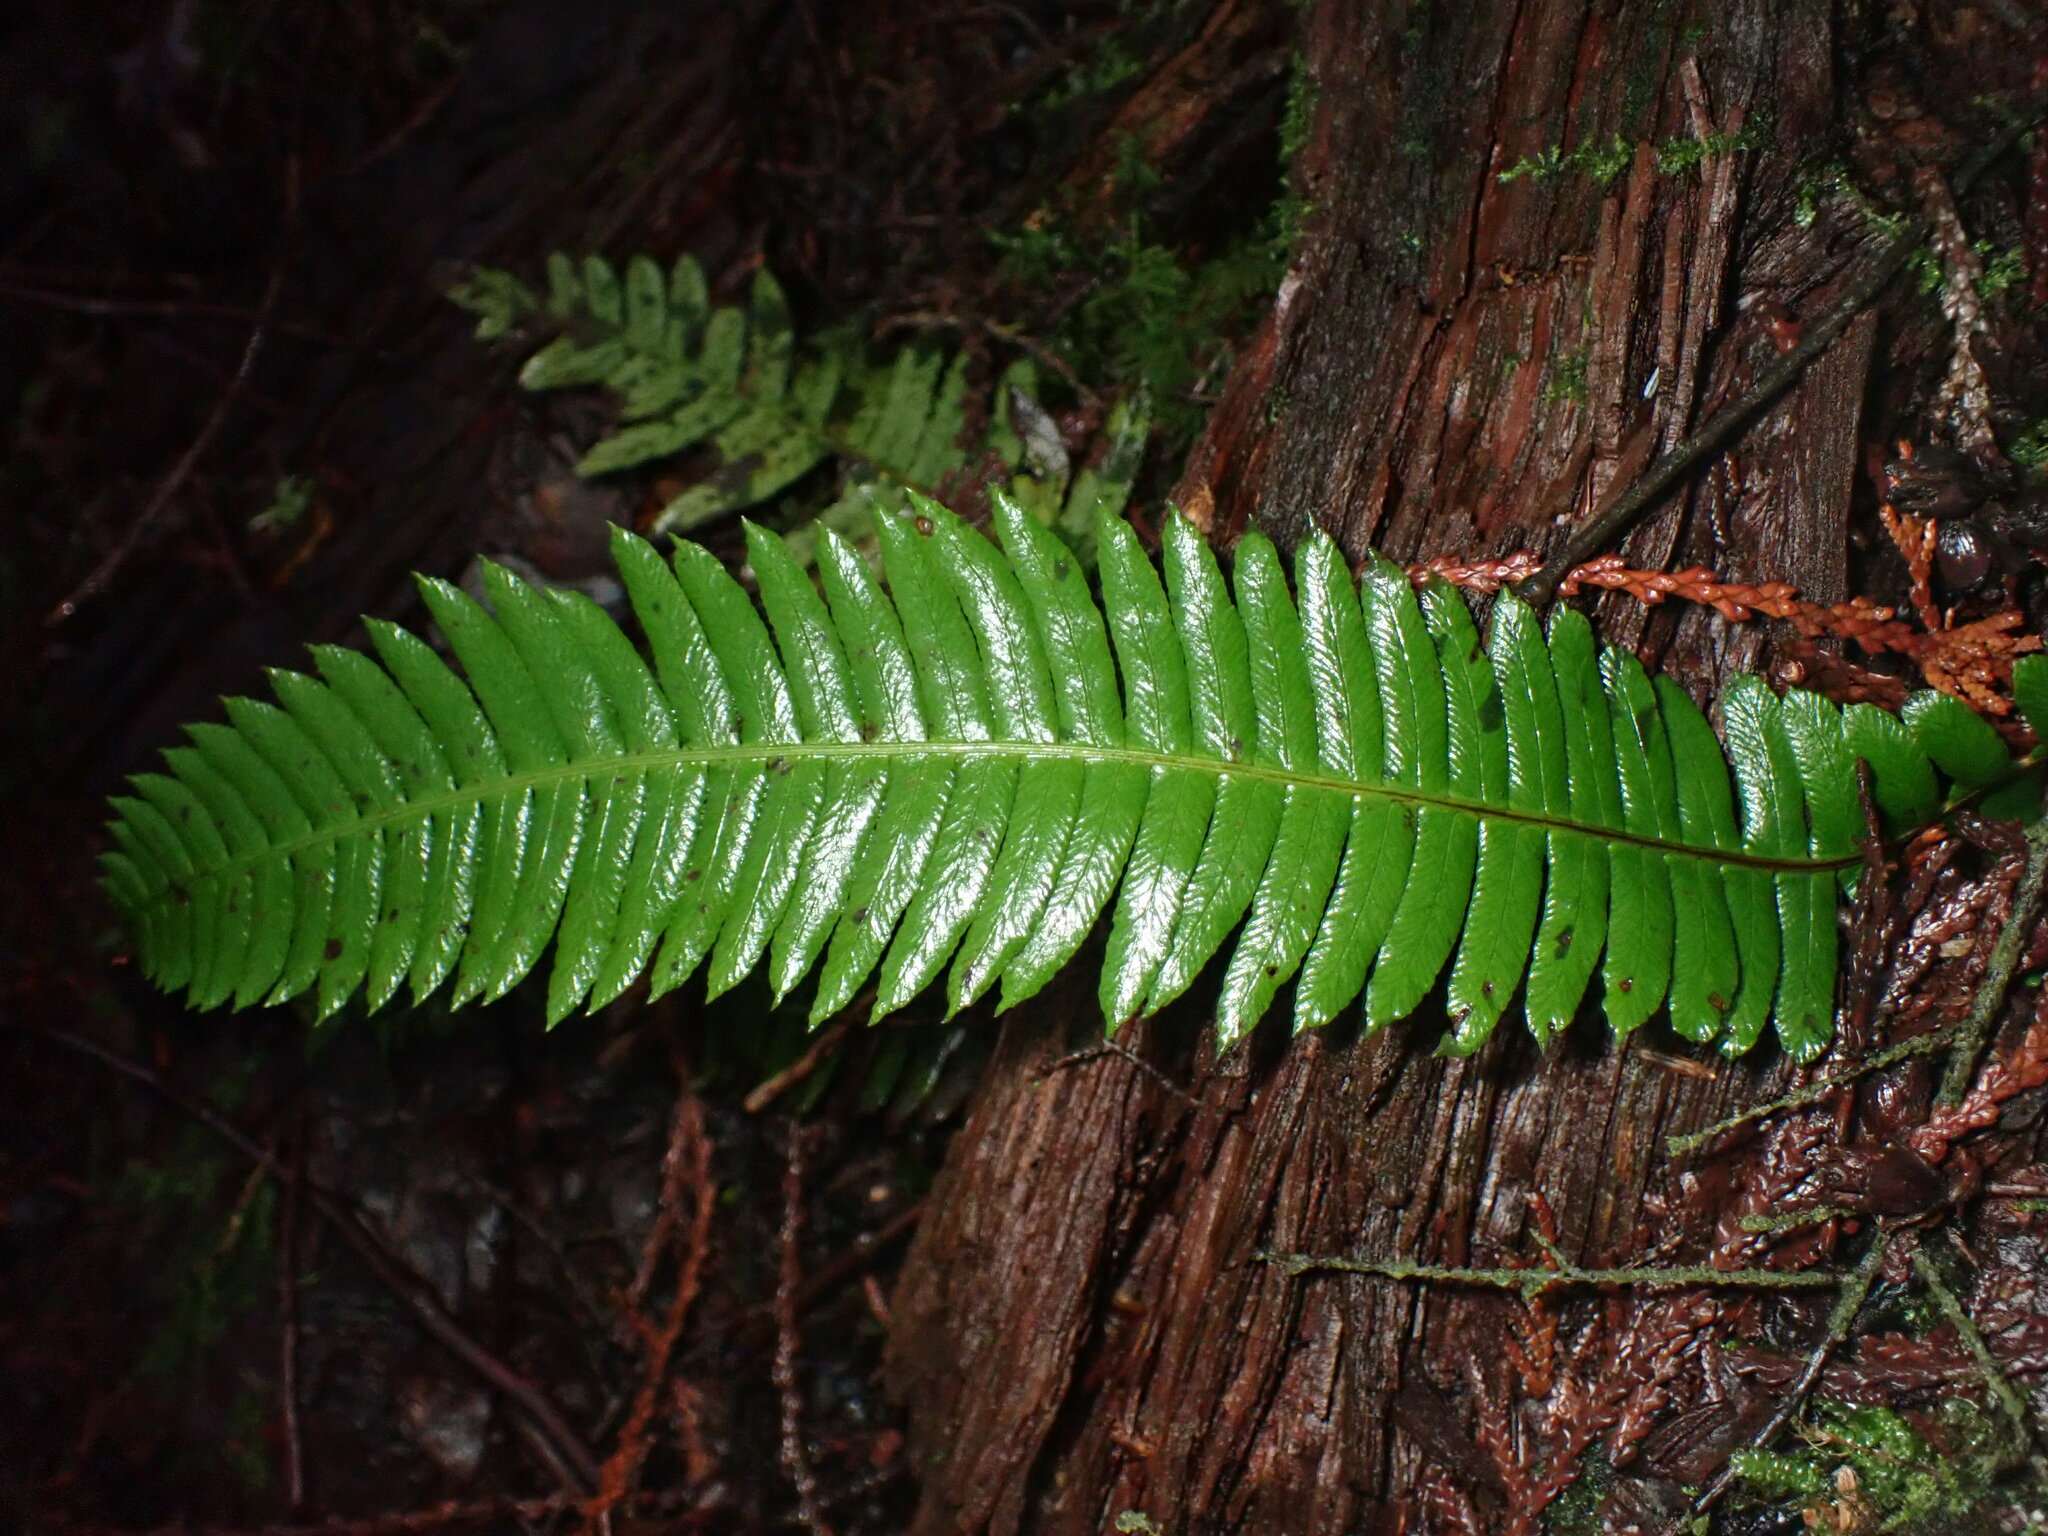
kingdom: Plantae
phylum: Tracheophyta
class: Polypodiopsida
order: Polypodiales
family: Blechnaceae
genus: Struthiopteris
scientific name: Struthiopteris spicant
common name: Deer fern
